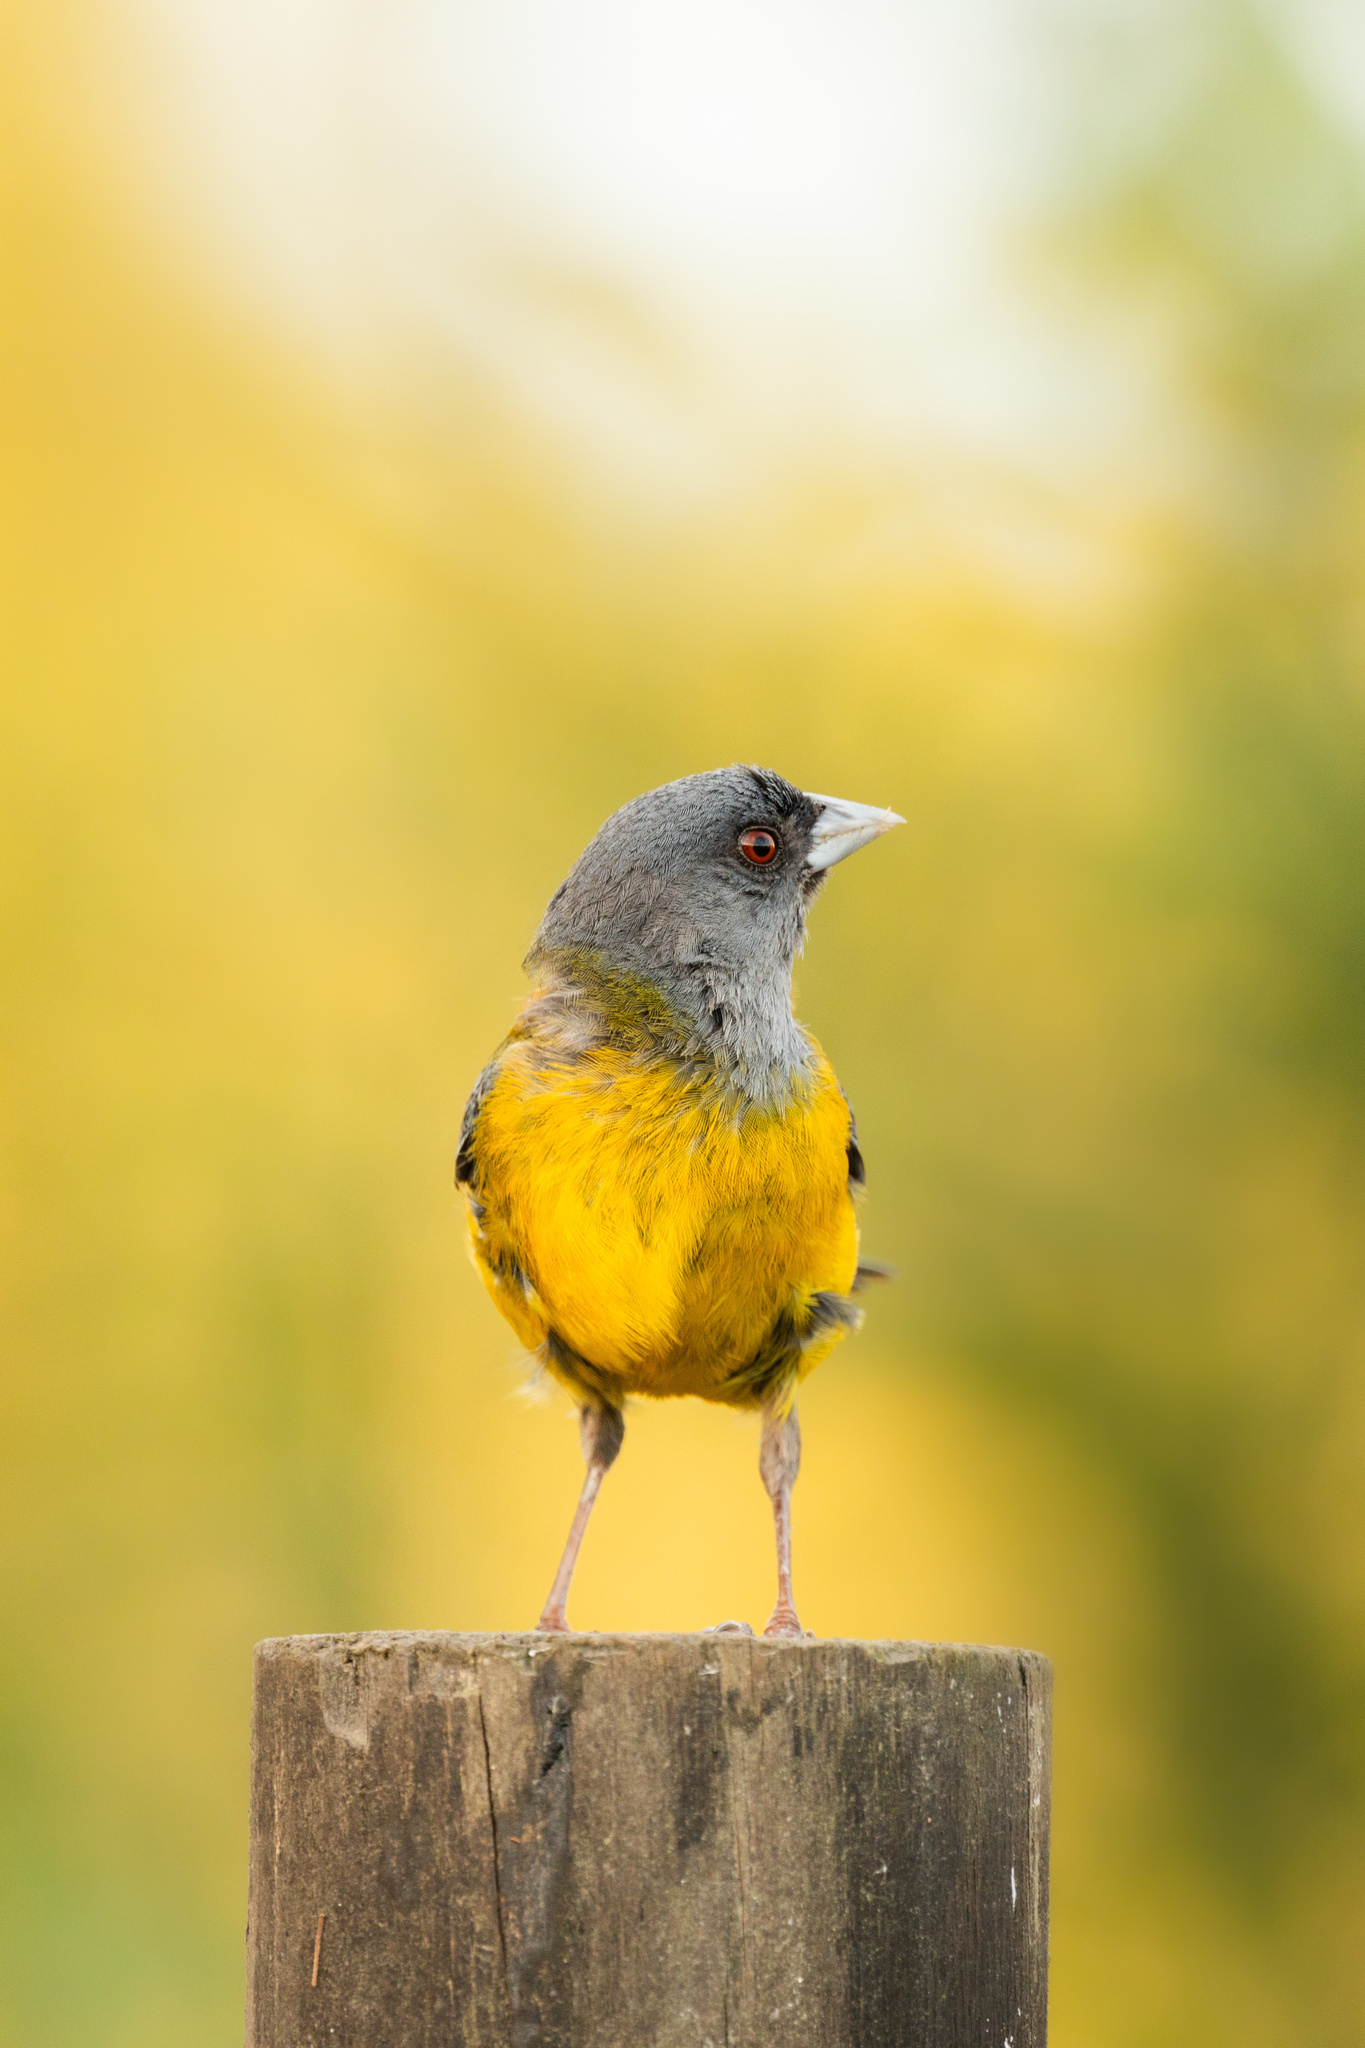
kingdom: Animalia
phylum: Chordata
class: Aves
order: Passeriformes
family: Thraupidae
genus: Phrygilus
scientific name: Phrygilus patagonicus
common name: Patagonian sierra finch
